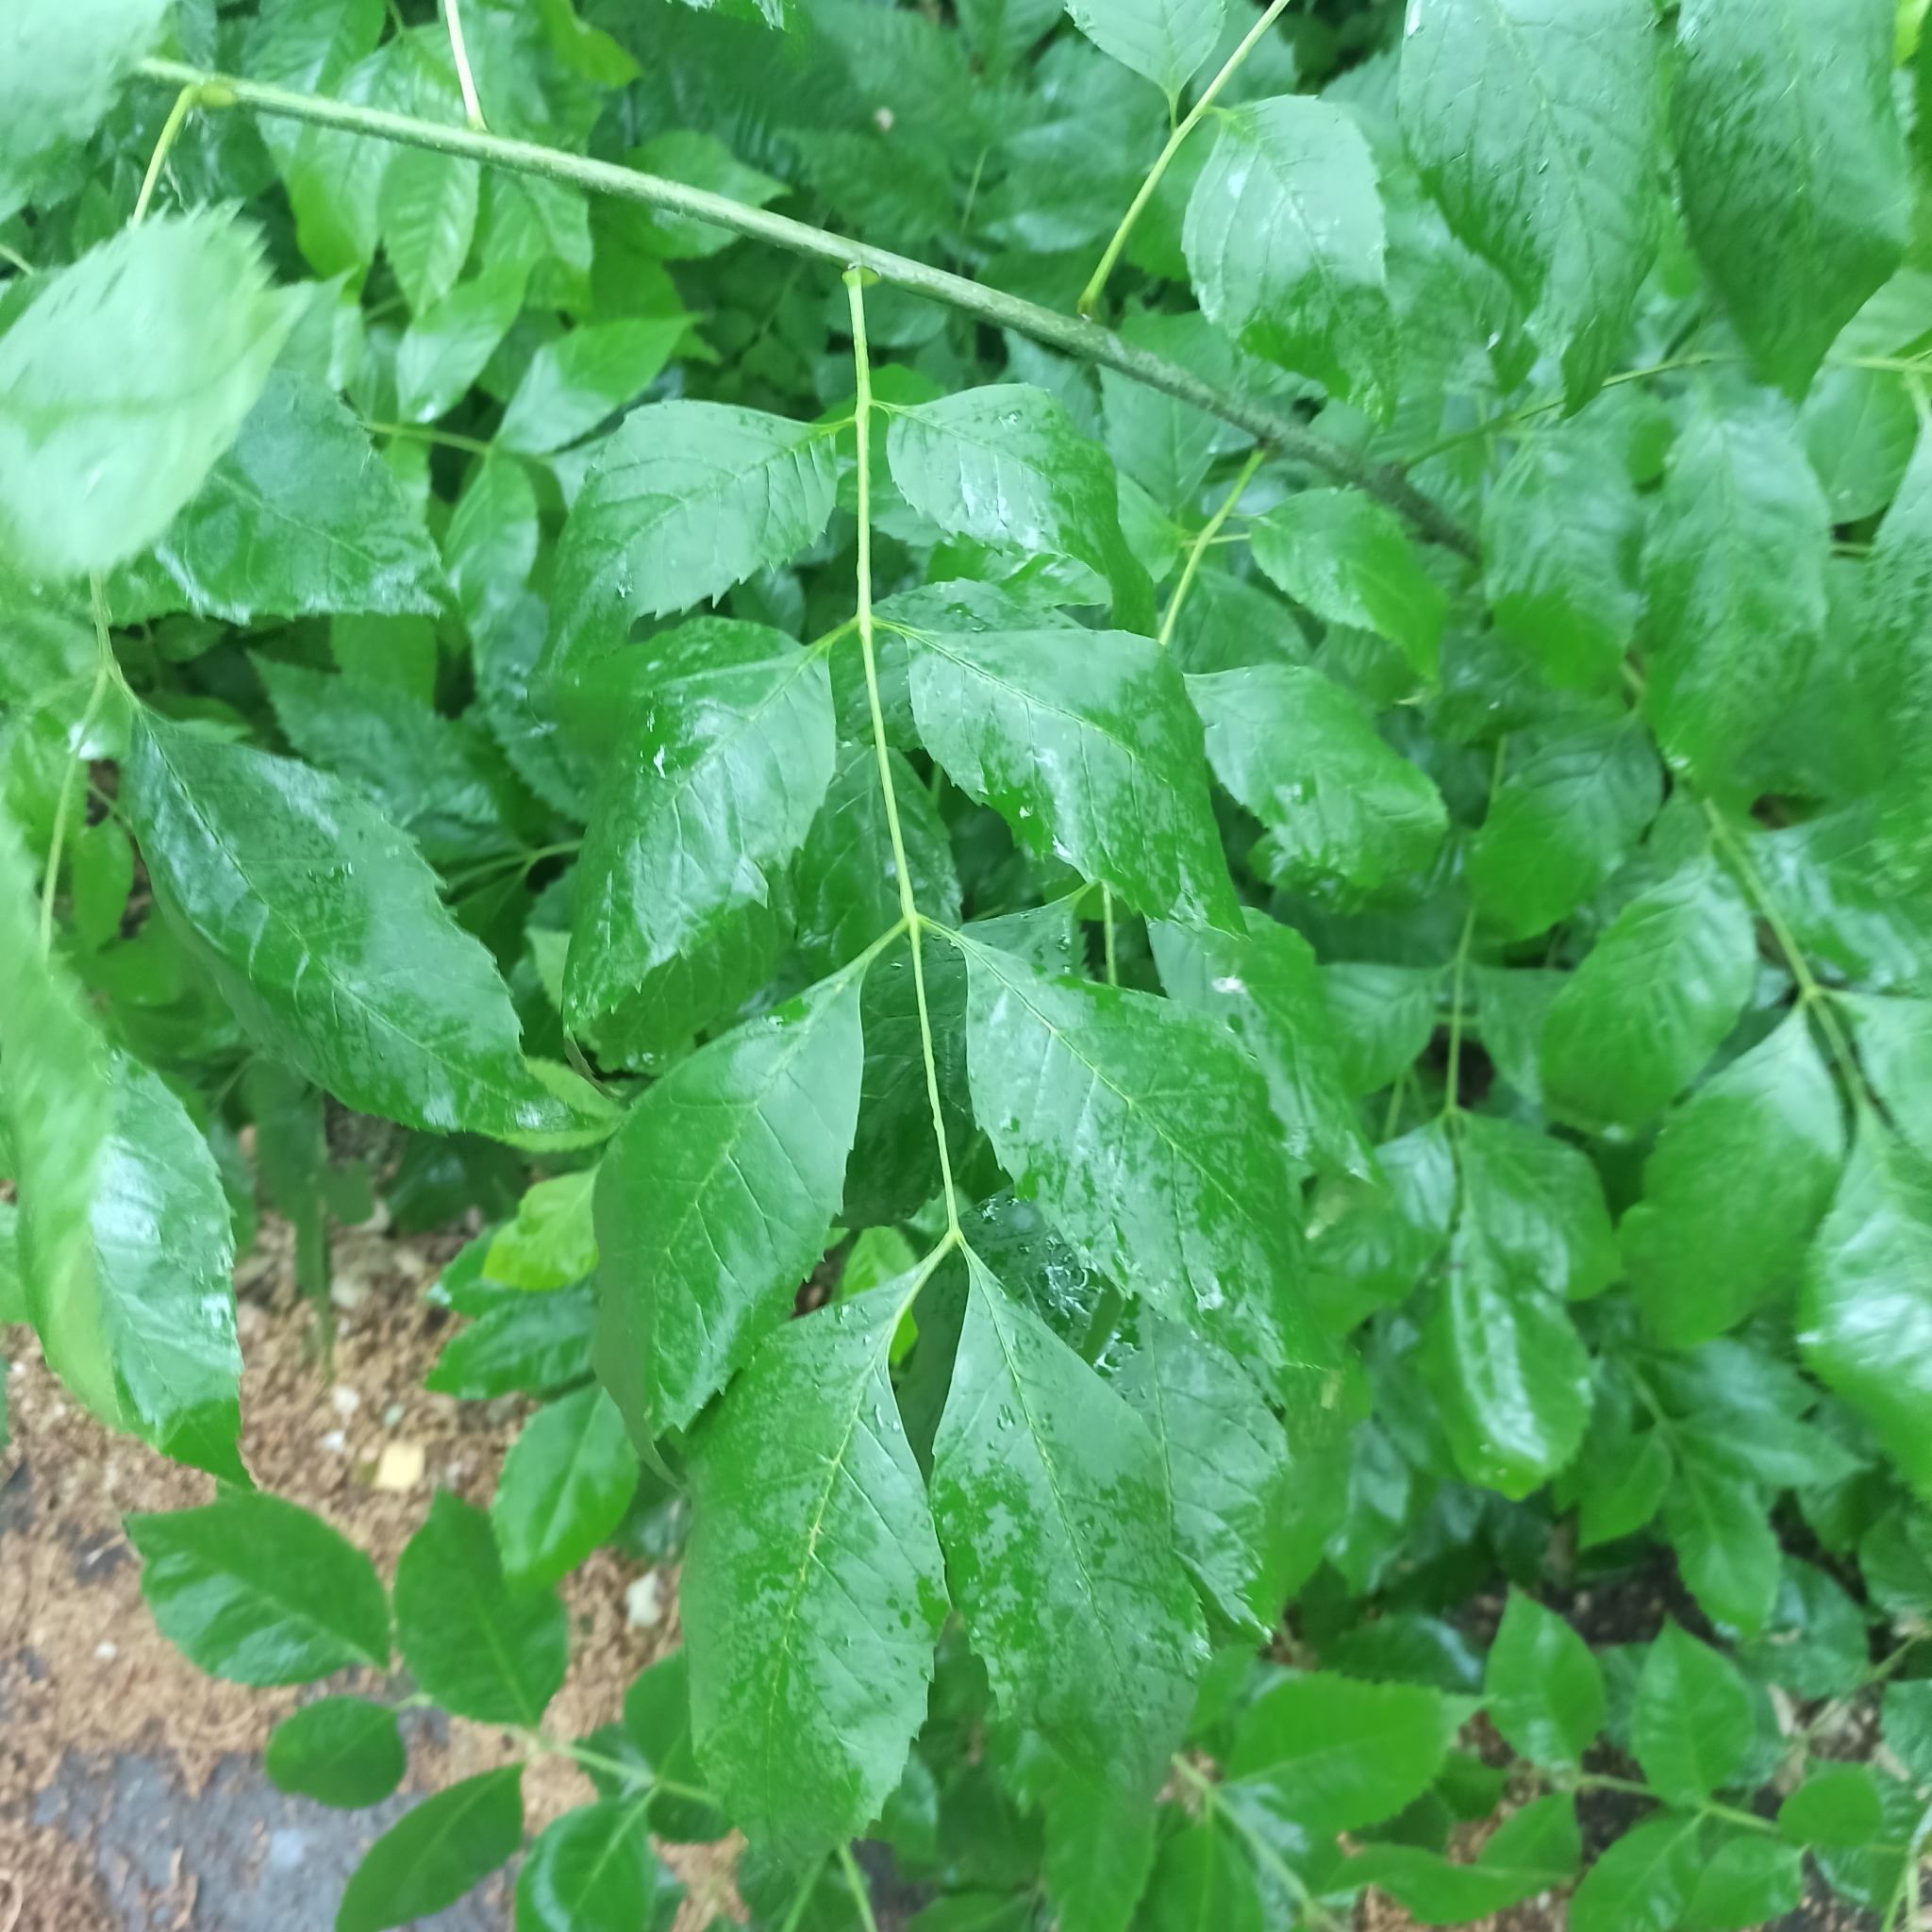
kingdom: Plantae
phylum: Tracheophyta
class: Magnoliopsida
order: Lamiales
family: Oleaceae
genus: Fraxinus
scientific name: Fraxinus pennsylvanica
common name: Green ash
